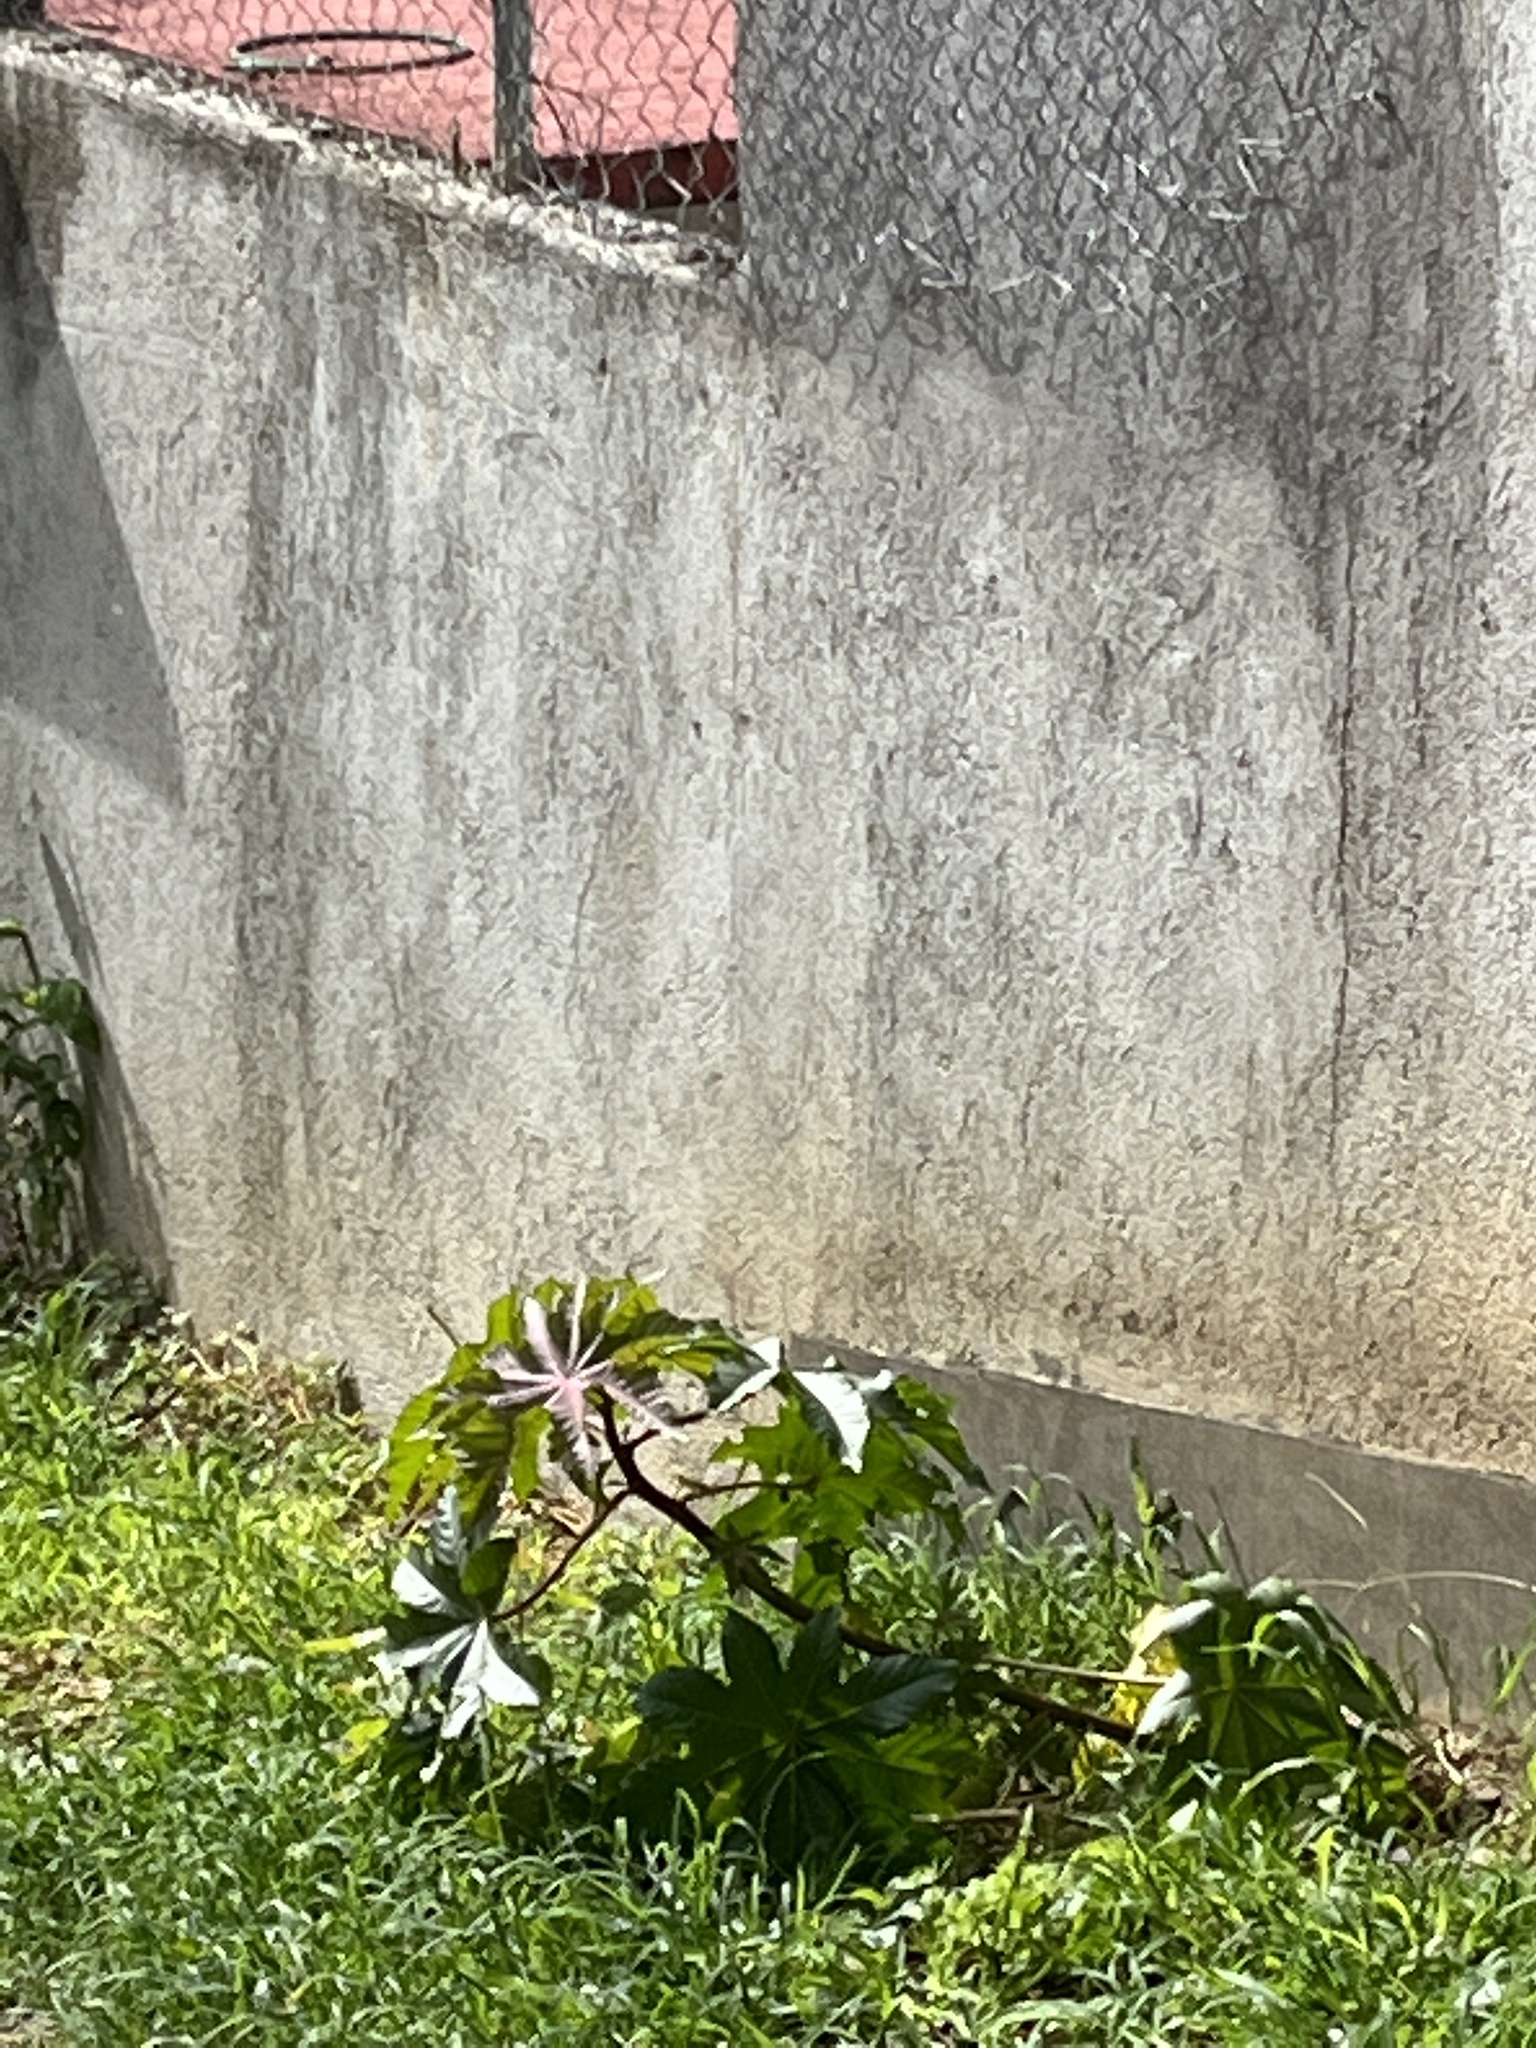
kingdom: Plantae
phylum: Tracheophyta
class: Magnoliopsida
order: Malpighiales
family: Euphorbiaceae
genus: Ricinus
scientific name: Ricinus communis
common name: Castor-oil-plant
